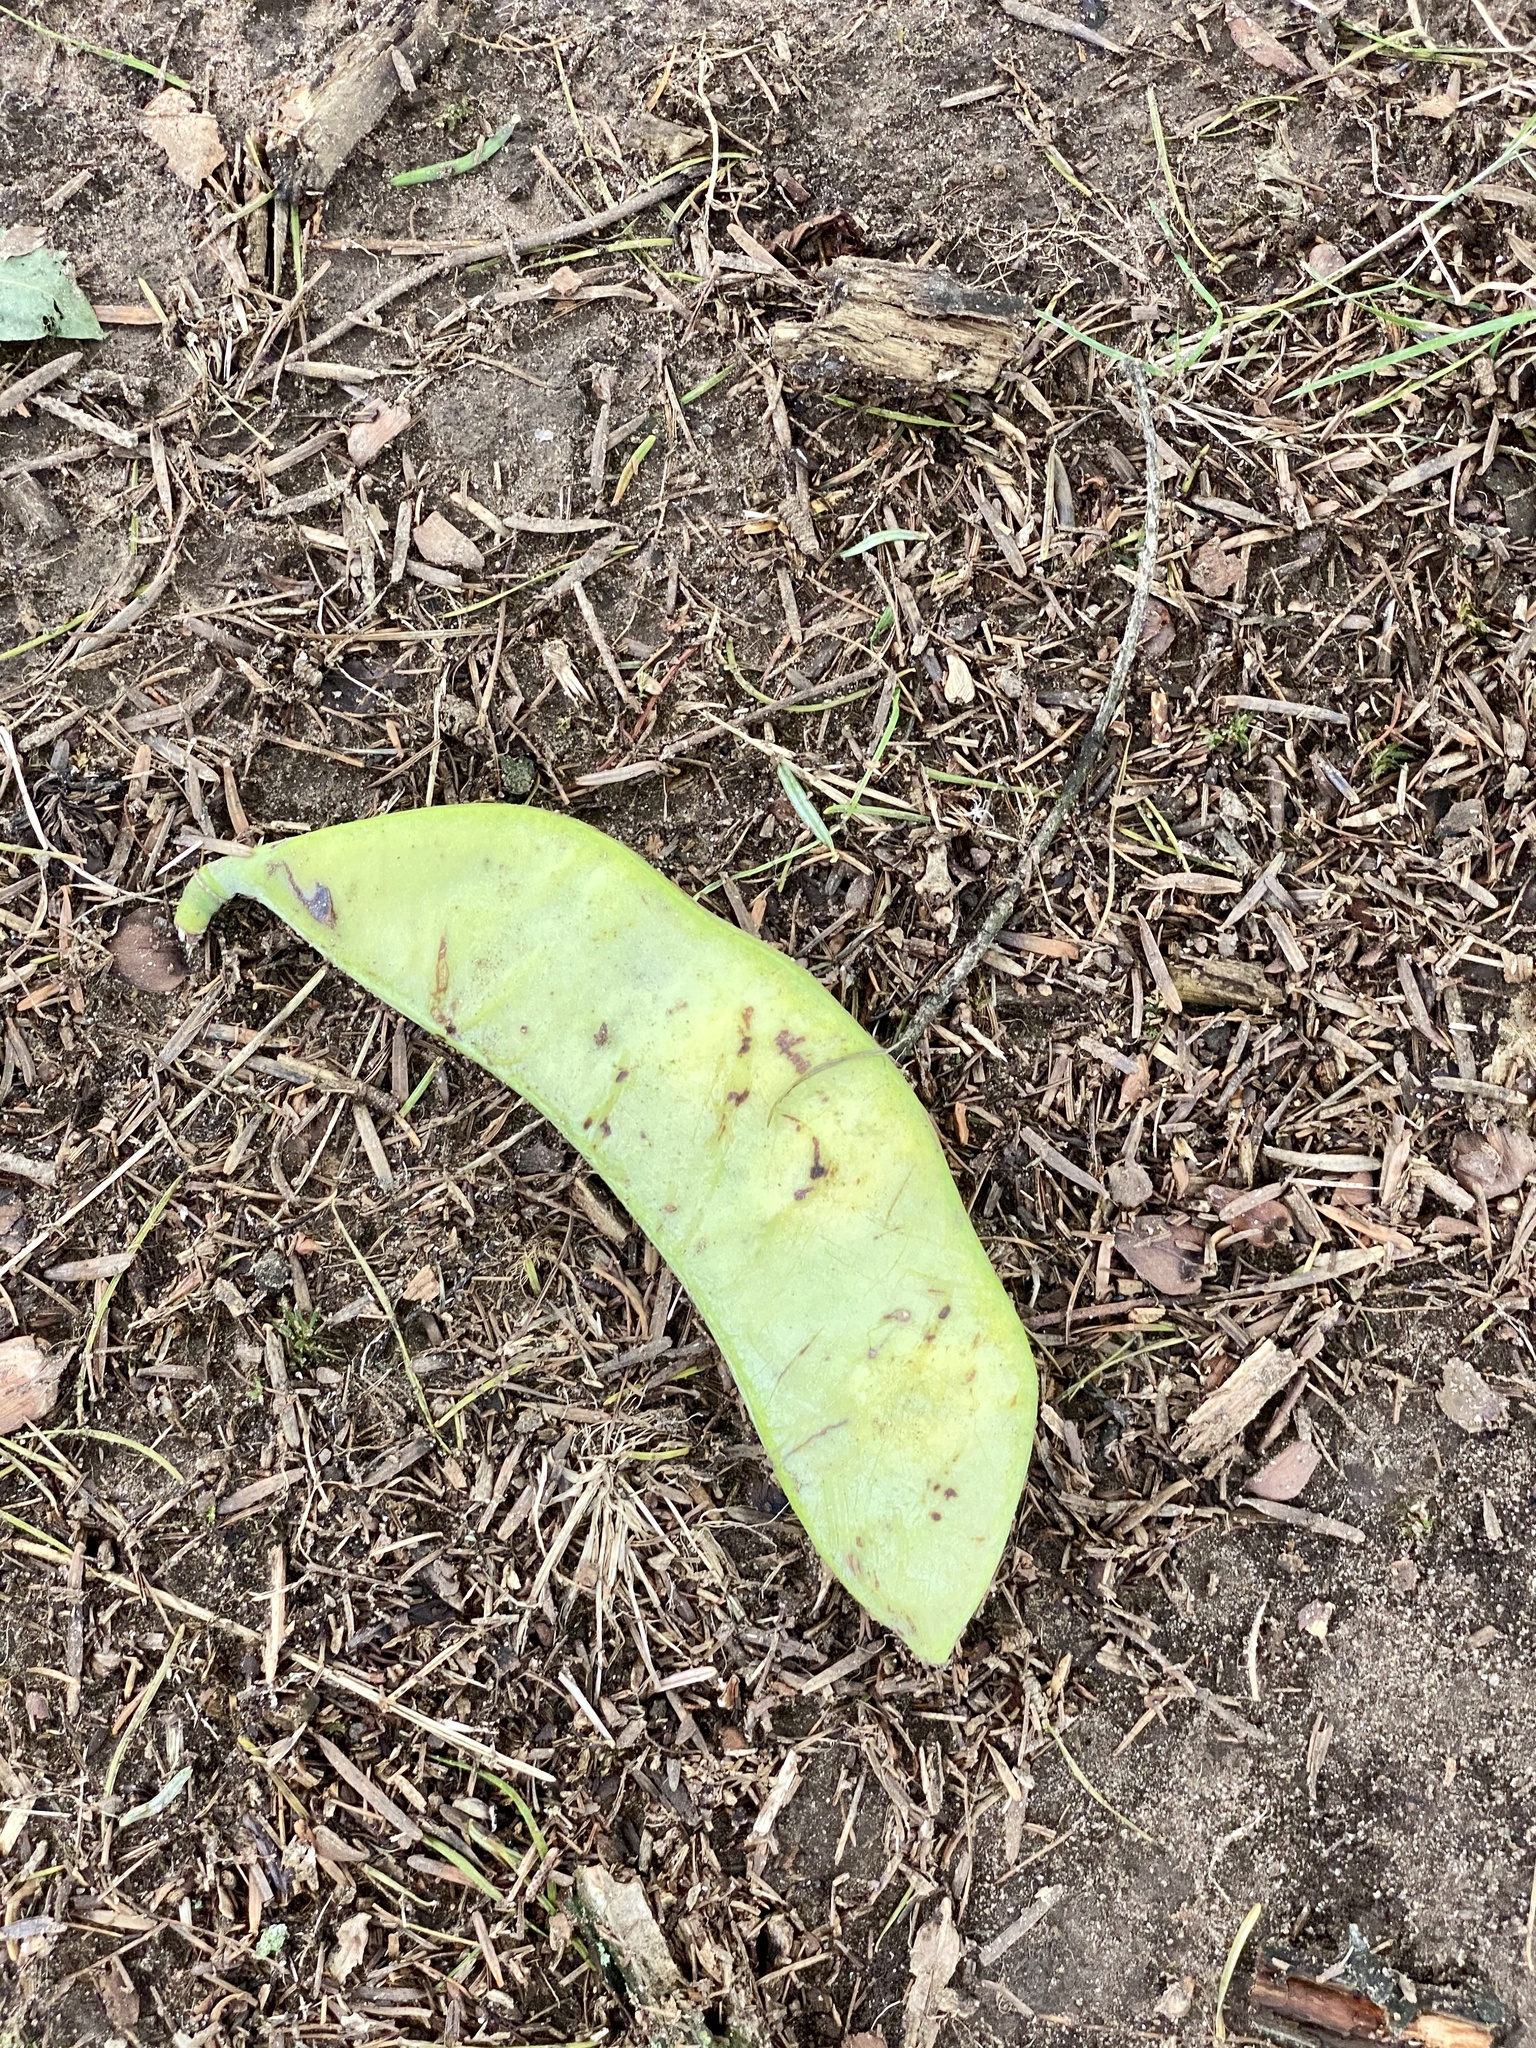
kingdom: Plantae
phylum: Tracheophyta
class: Magnoliopsida
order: Fabales
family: Fabaceae
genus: Gymnocladus
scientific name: Gymnocladus dioicus
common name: Kentucky coffee-tree
